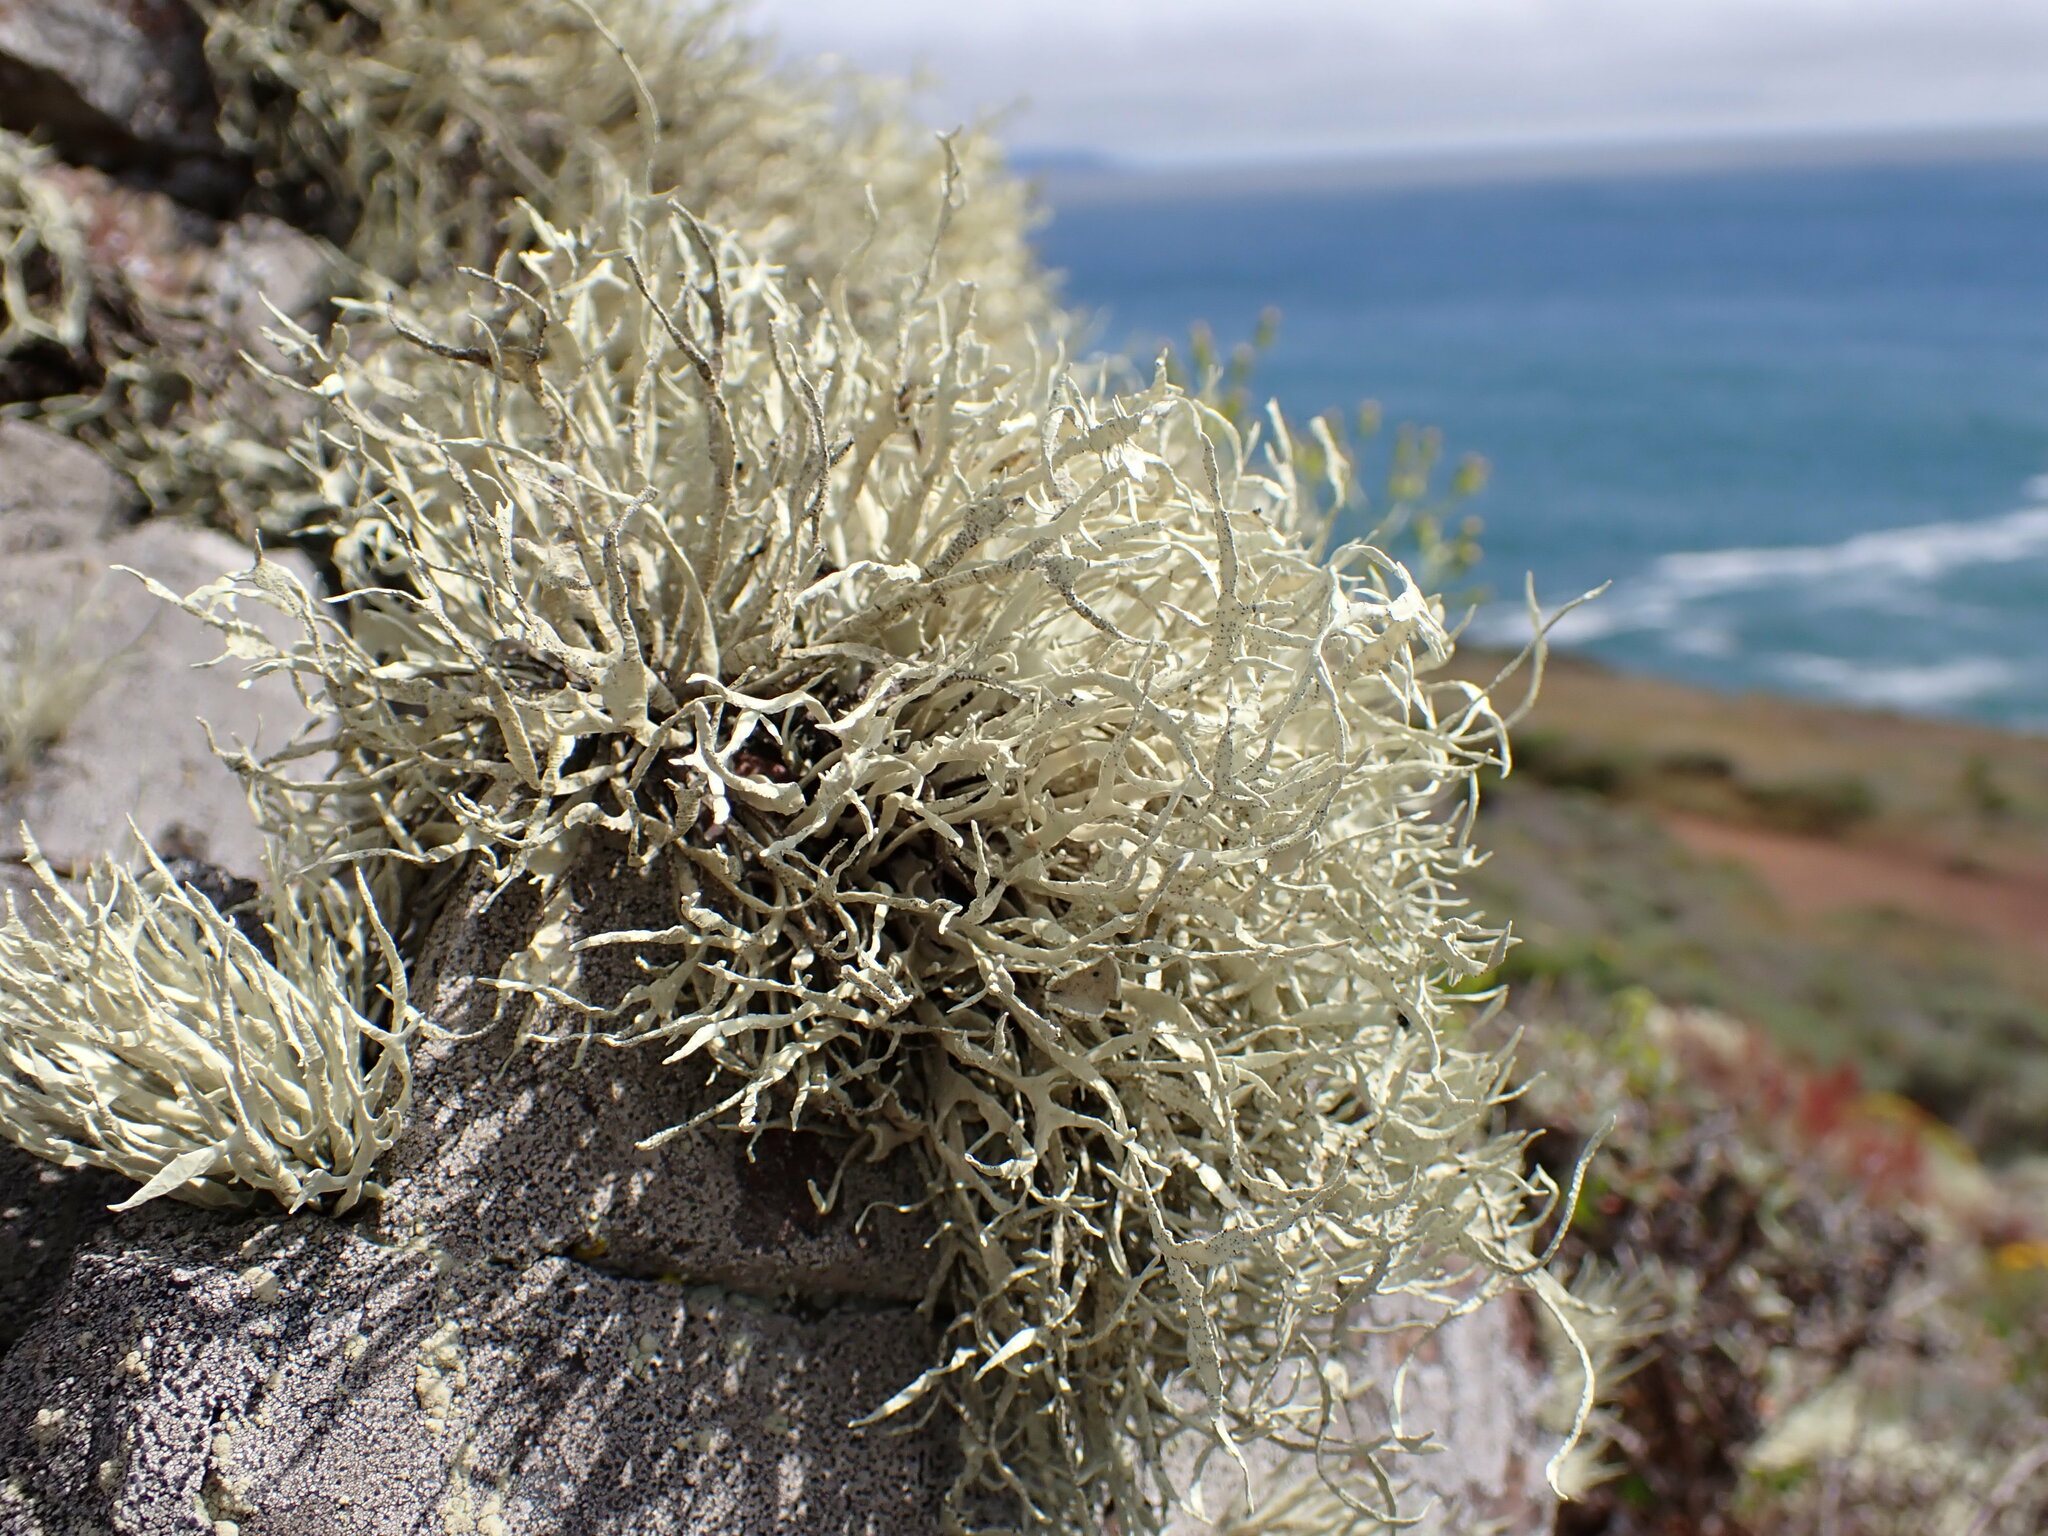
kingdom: Fungi
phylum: Ascomycota
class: Lecanoromycetes
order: Lecanorales
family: Ramalinaceae
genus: Niebla
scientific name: Niebla homalea
